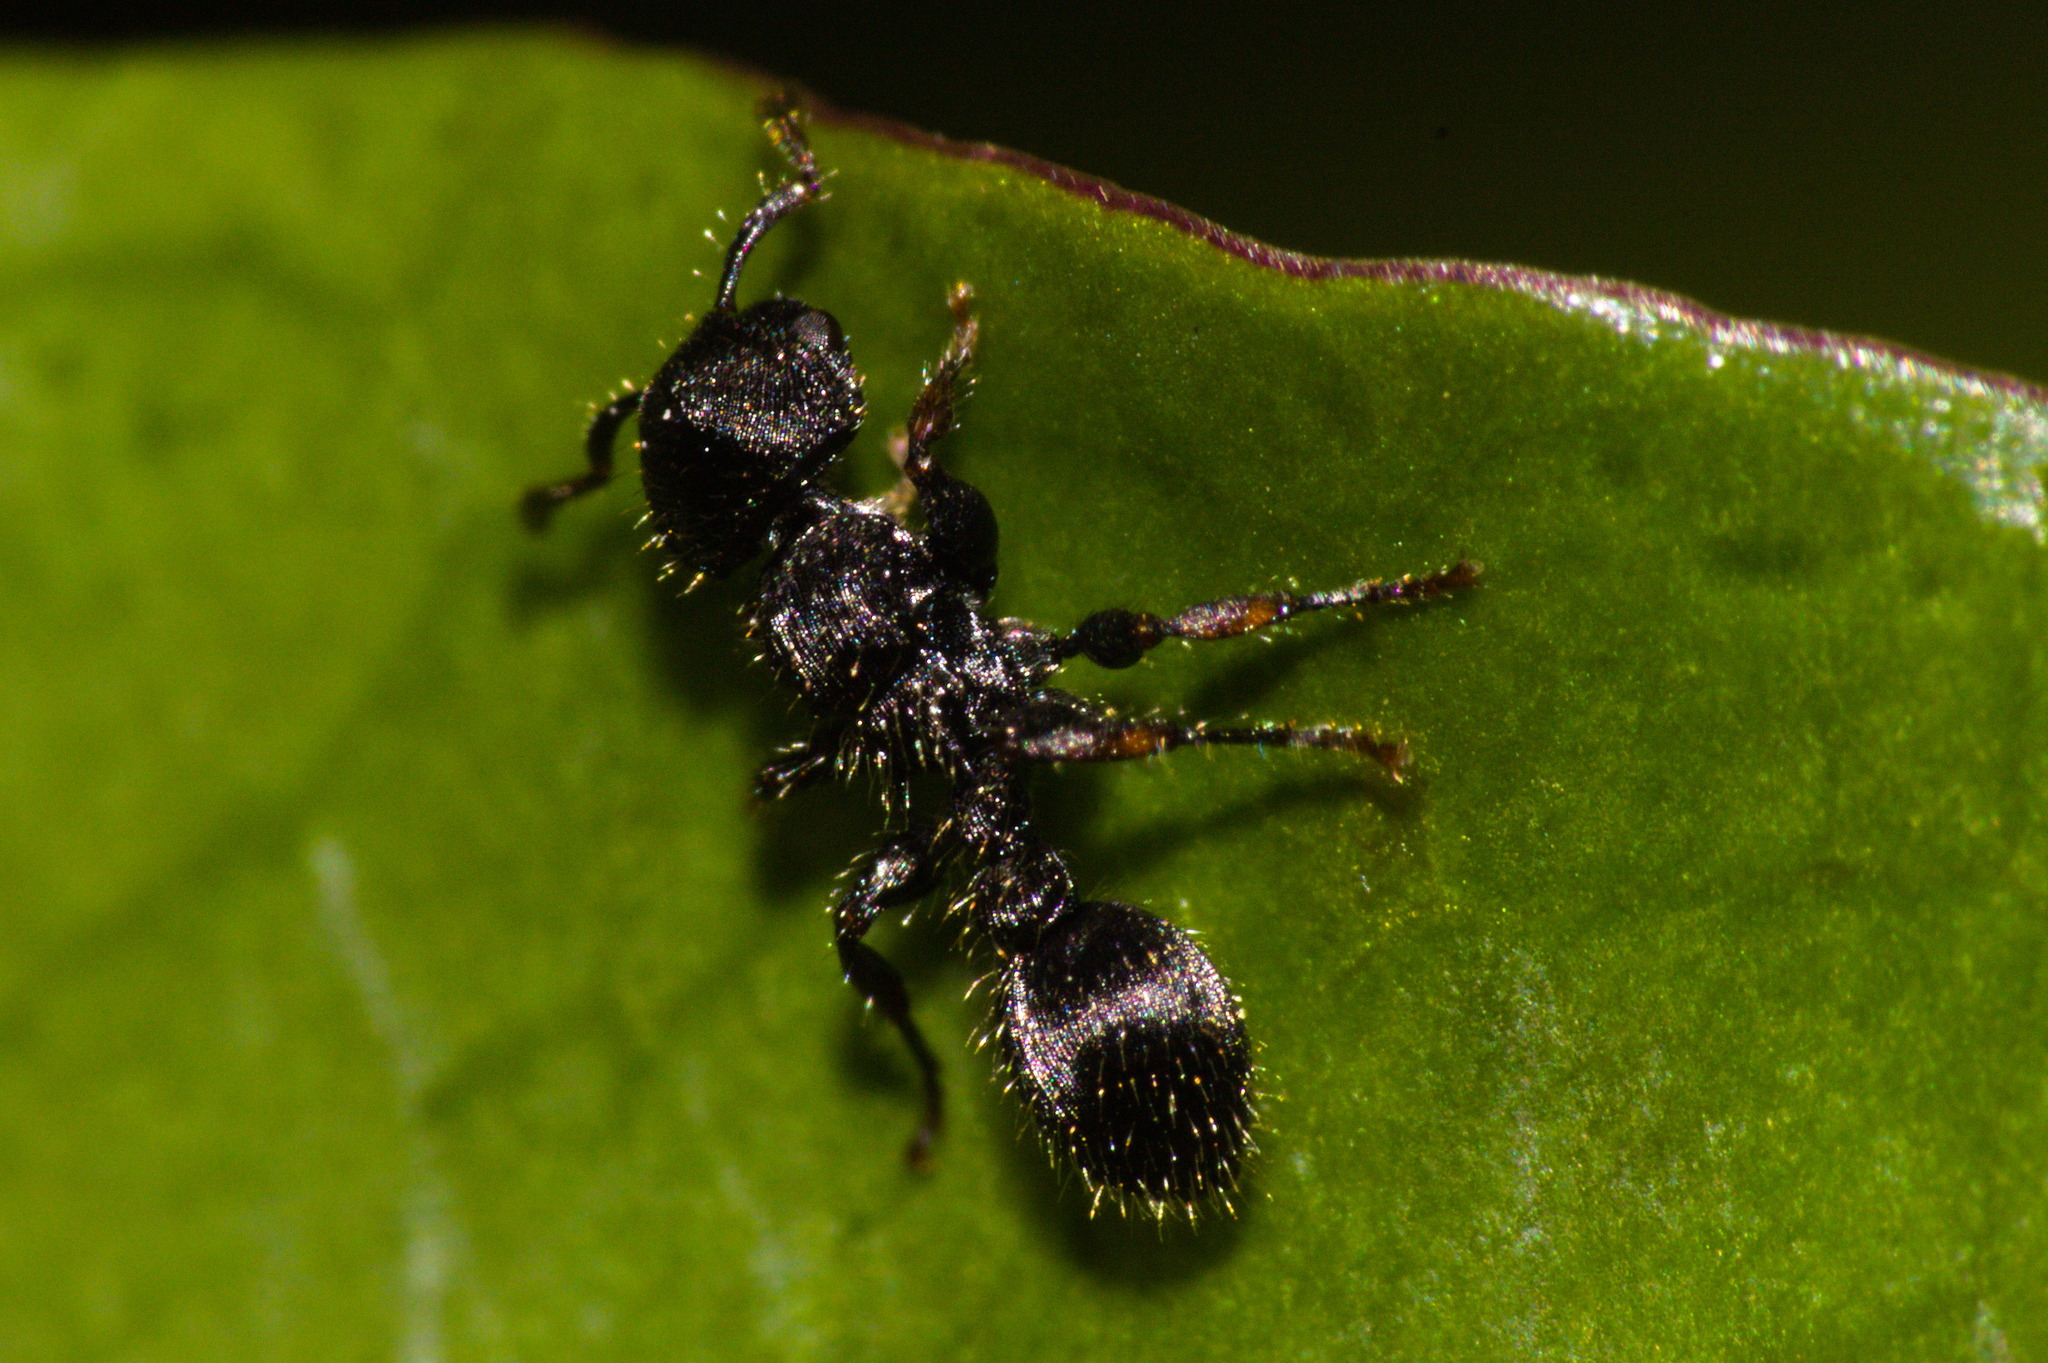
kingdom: Animalia
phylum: Arthropoda
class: Insecta
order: Hymenoptera
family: Formicidae
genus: Procryptocerus
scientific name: Procryptocerus
